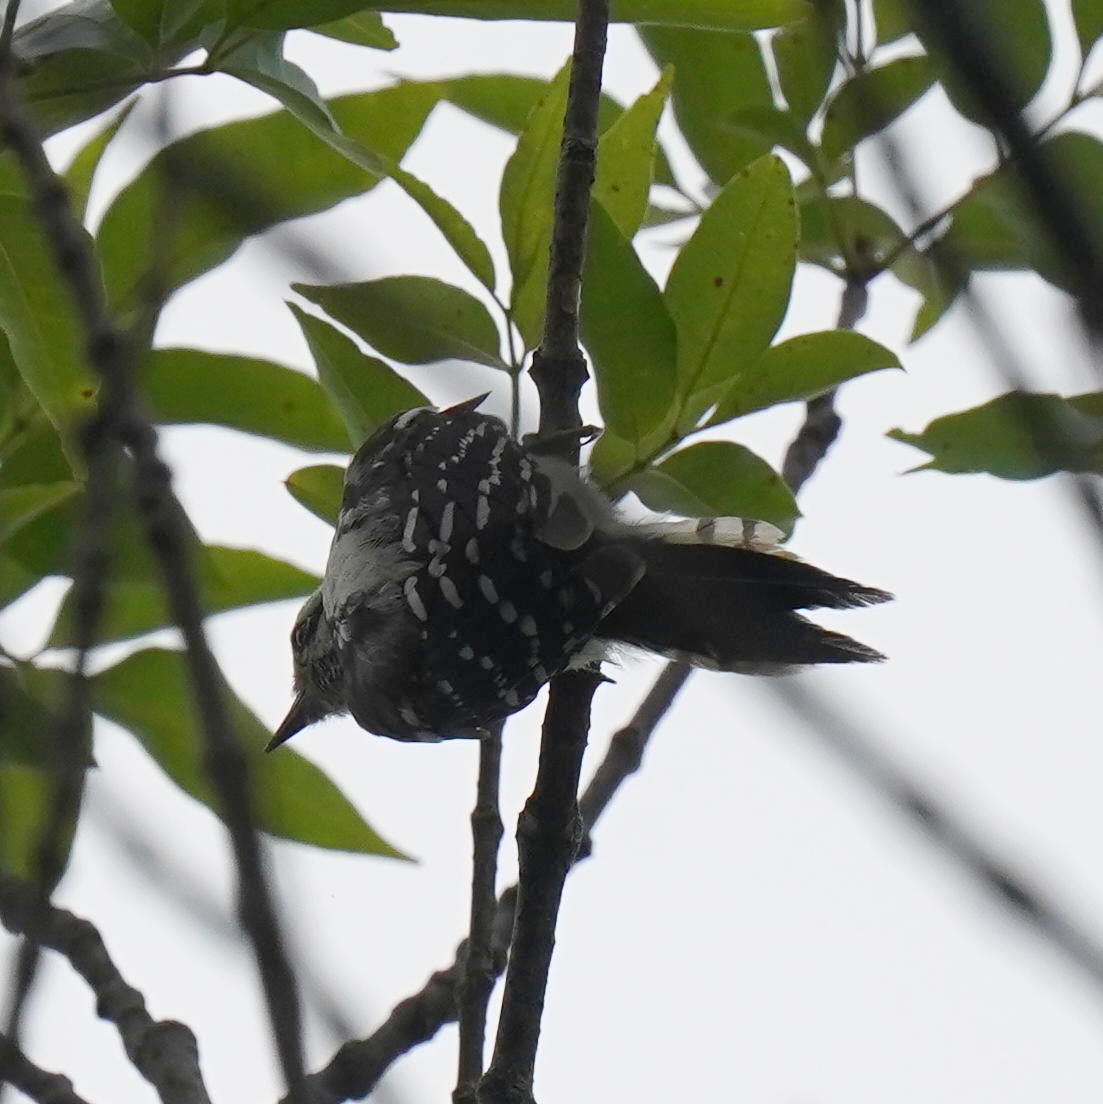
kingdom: Animalia
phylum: Chordata
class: Aves
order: Piciformes
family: Picidae
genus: Dryobates
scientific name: Dryobates pubescens
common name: Downy woodpecker
